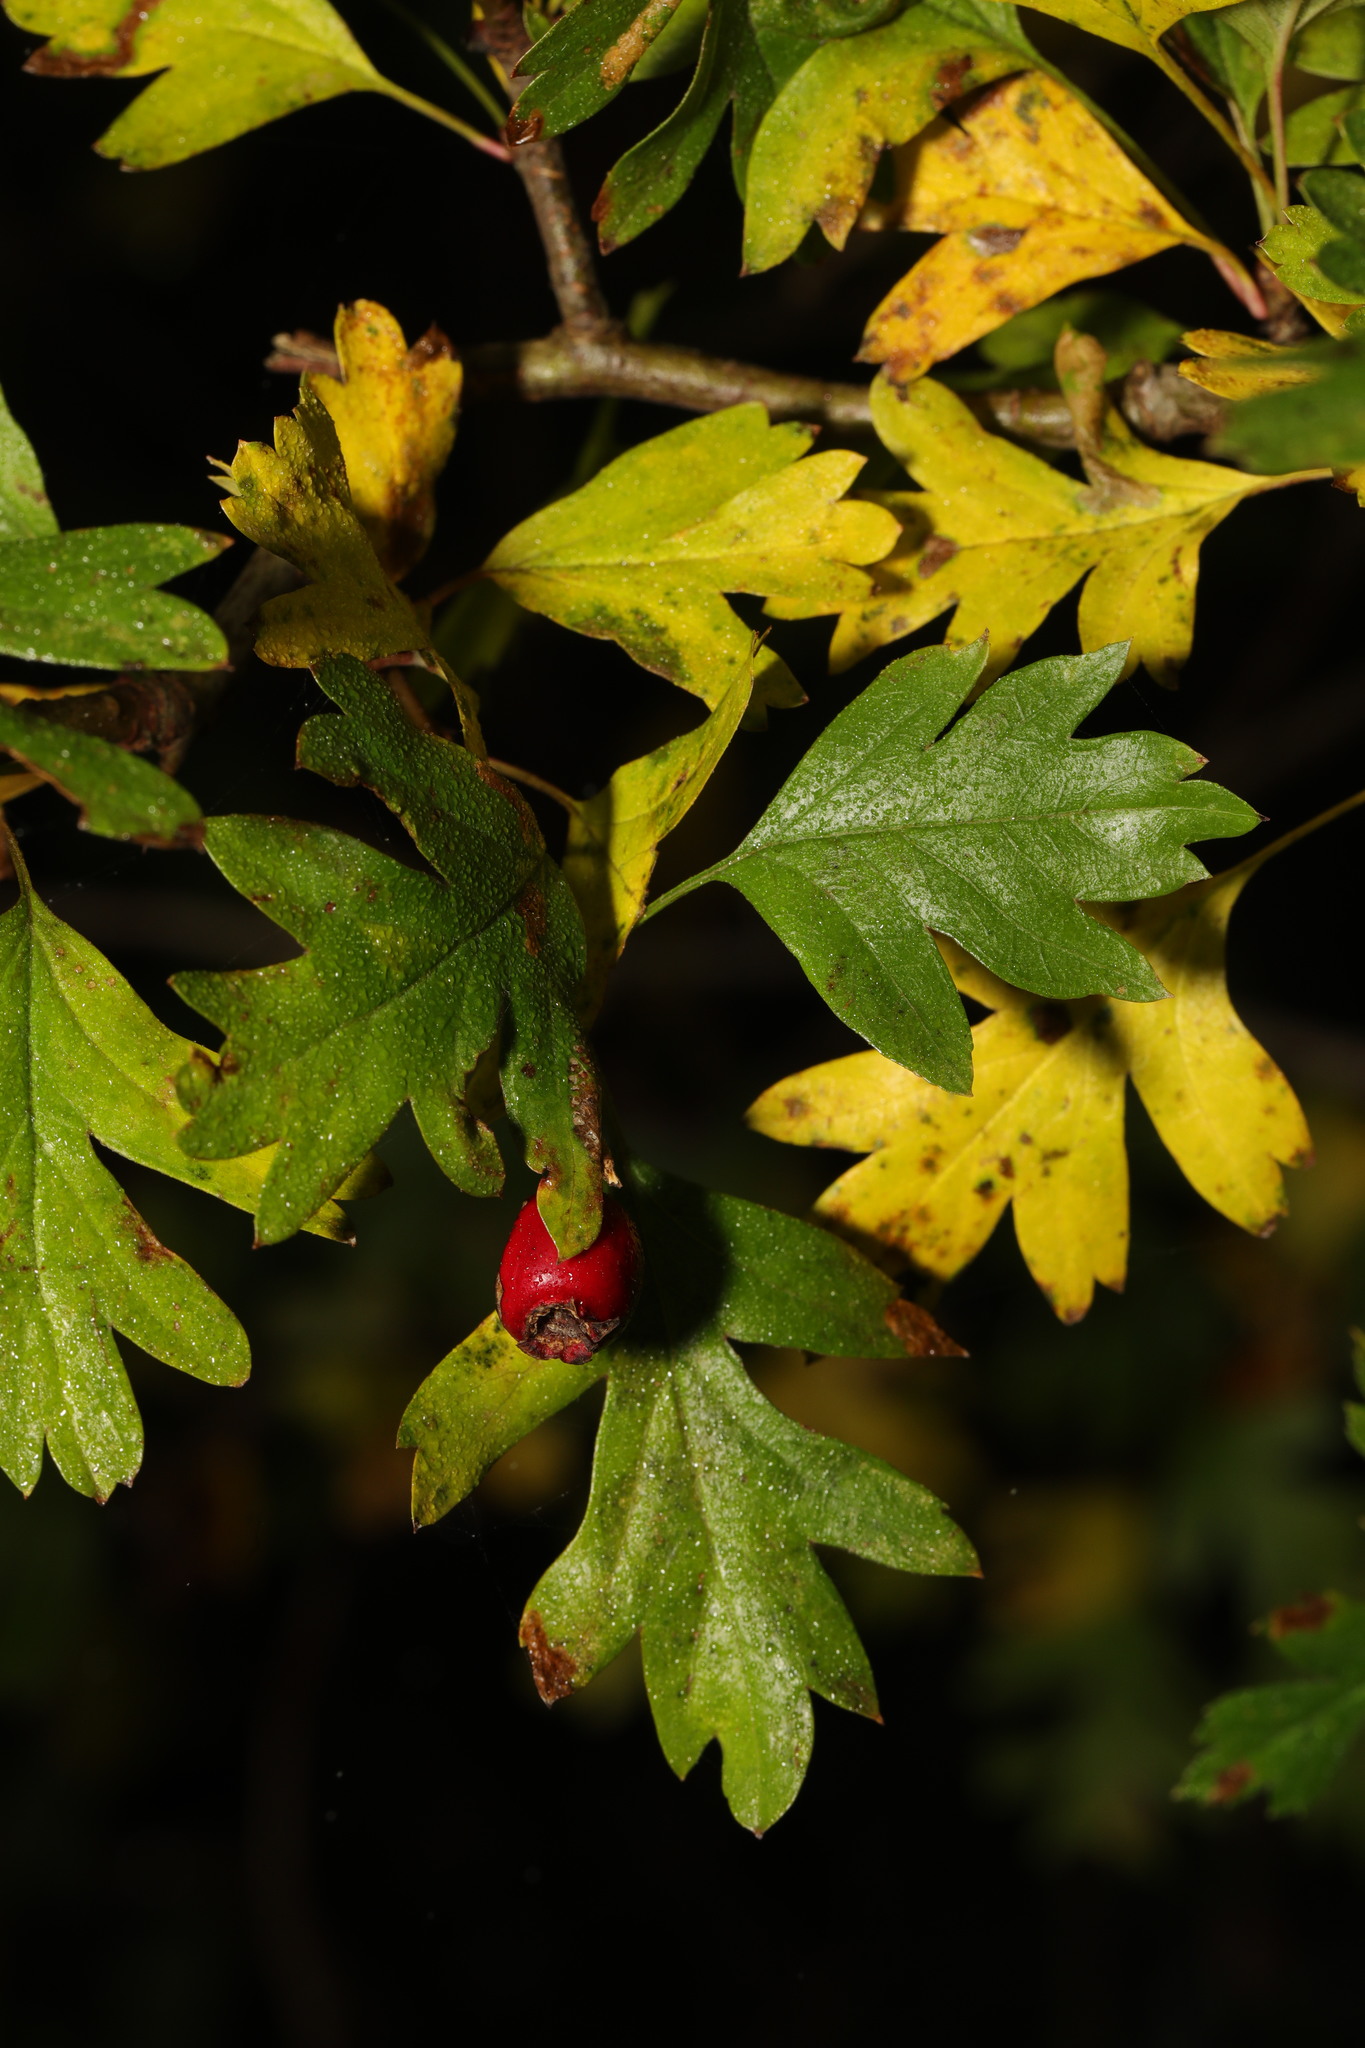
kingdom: Plantae
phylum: Tracheophyta
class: Magnoliopsida
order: Rosales
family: Rosaceae
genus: Crataegus
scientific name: Crataegus monogyna
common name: Hawthorn
